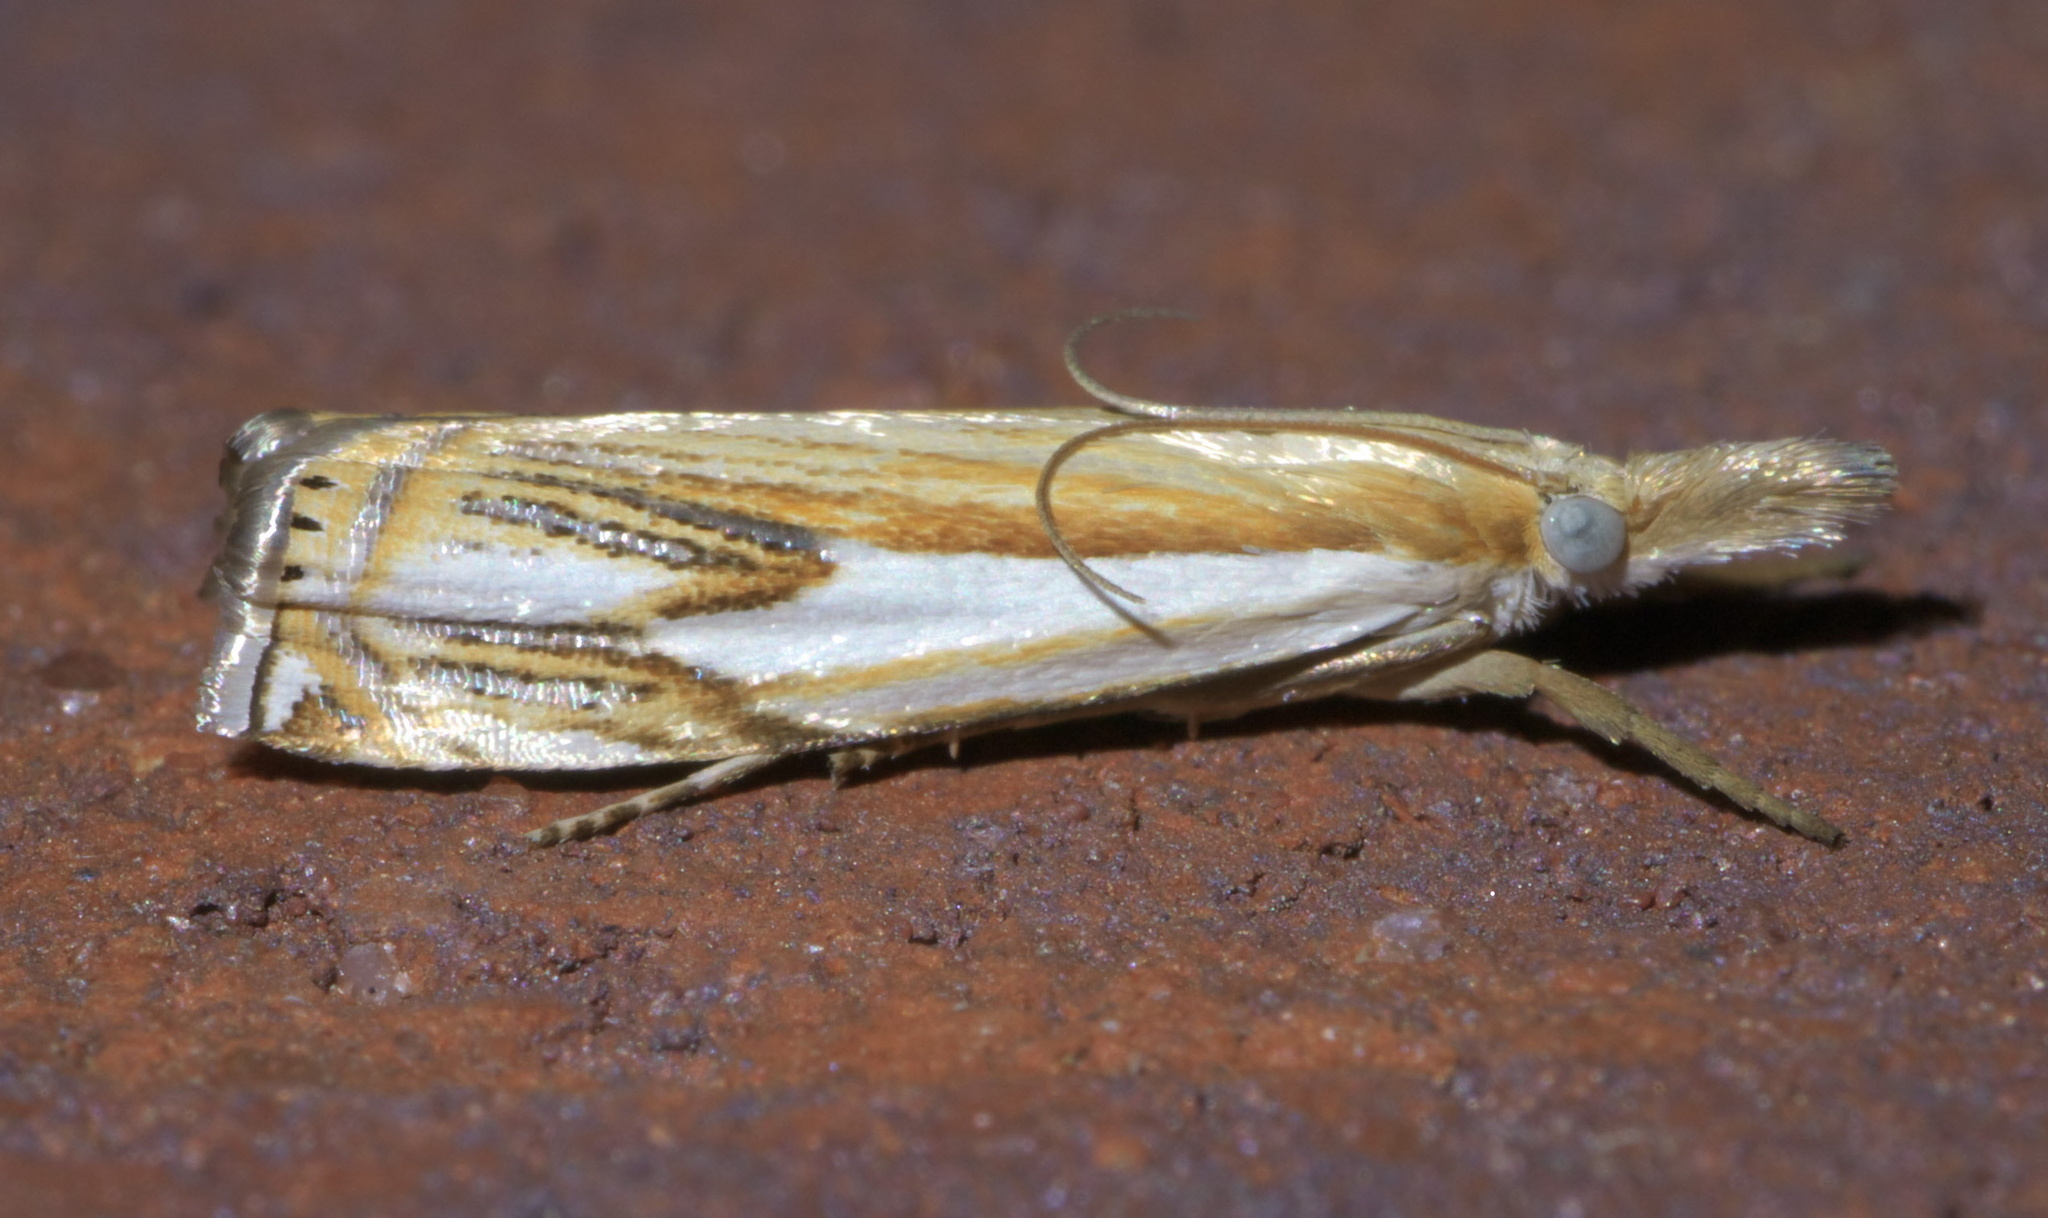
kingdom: Animalia
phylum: Arthropoda
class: Insecta
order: Lepidoptera
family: Crambidae
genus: Crambus
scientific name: Crambus agitatellus
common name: Double-banded grass-veneer
